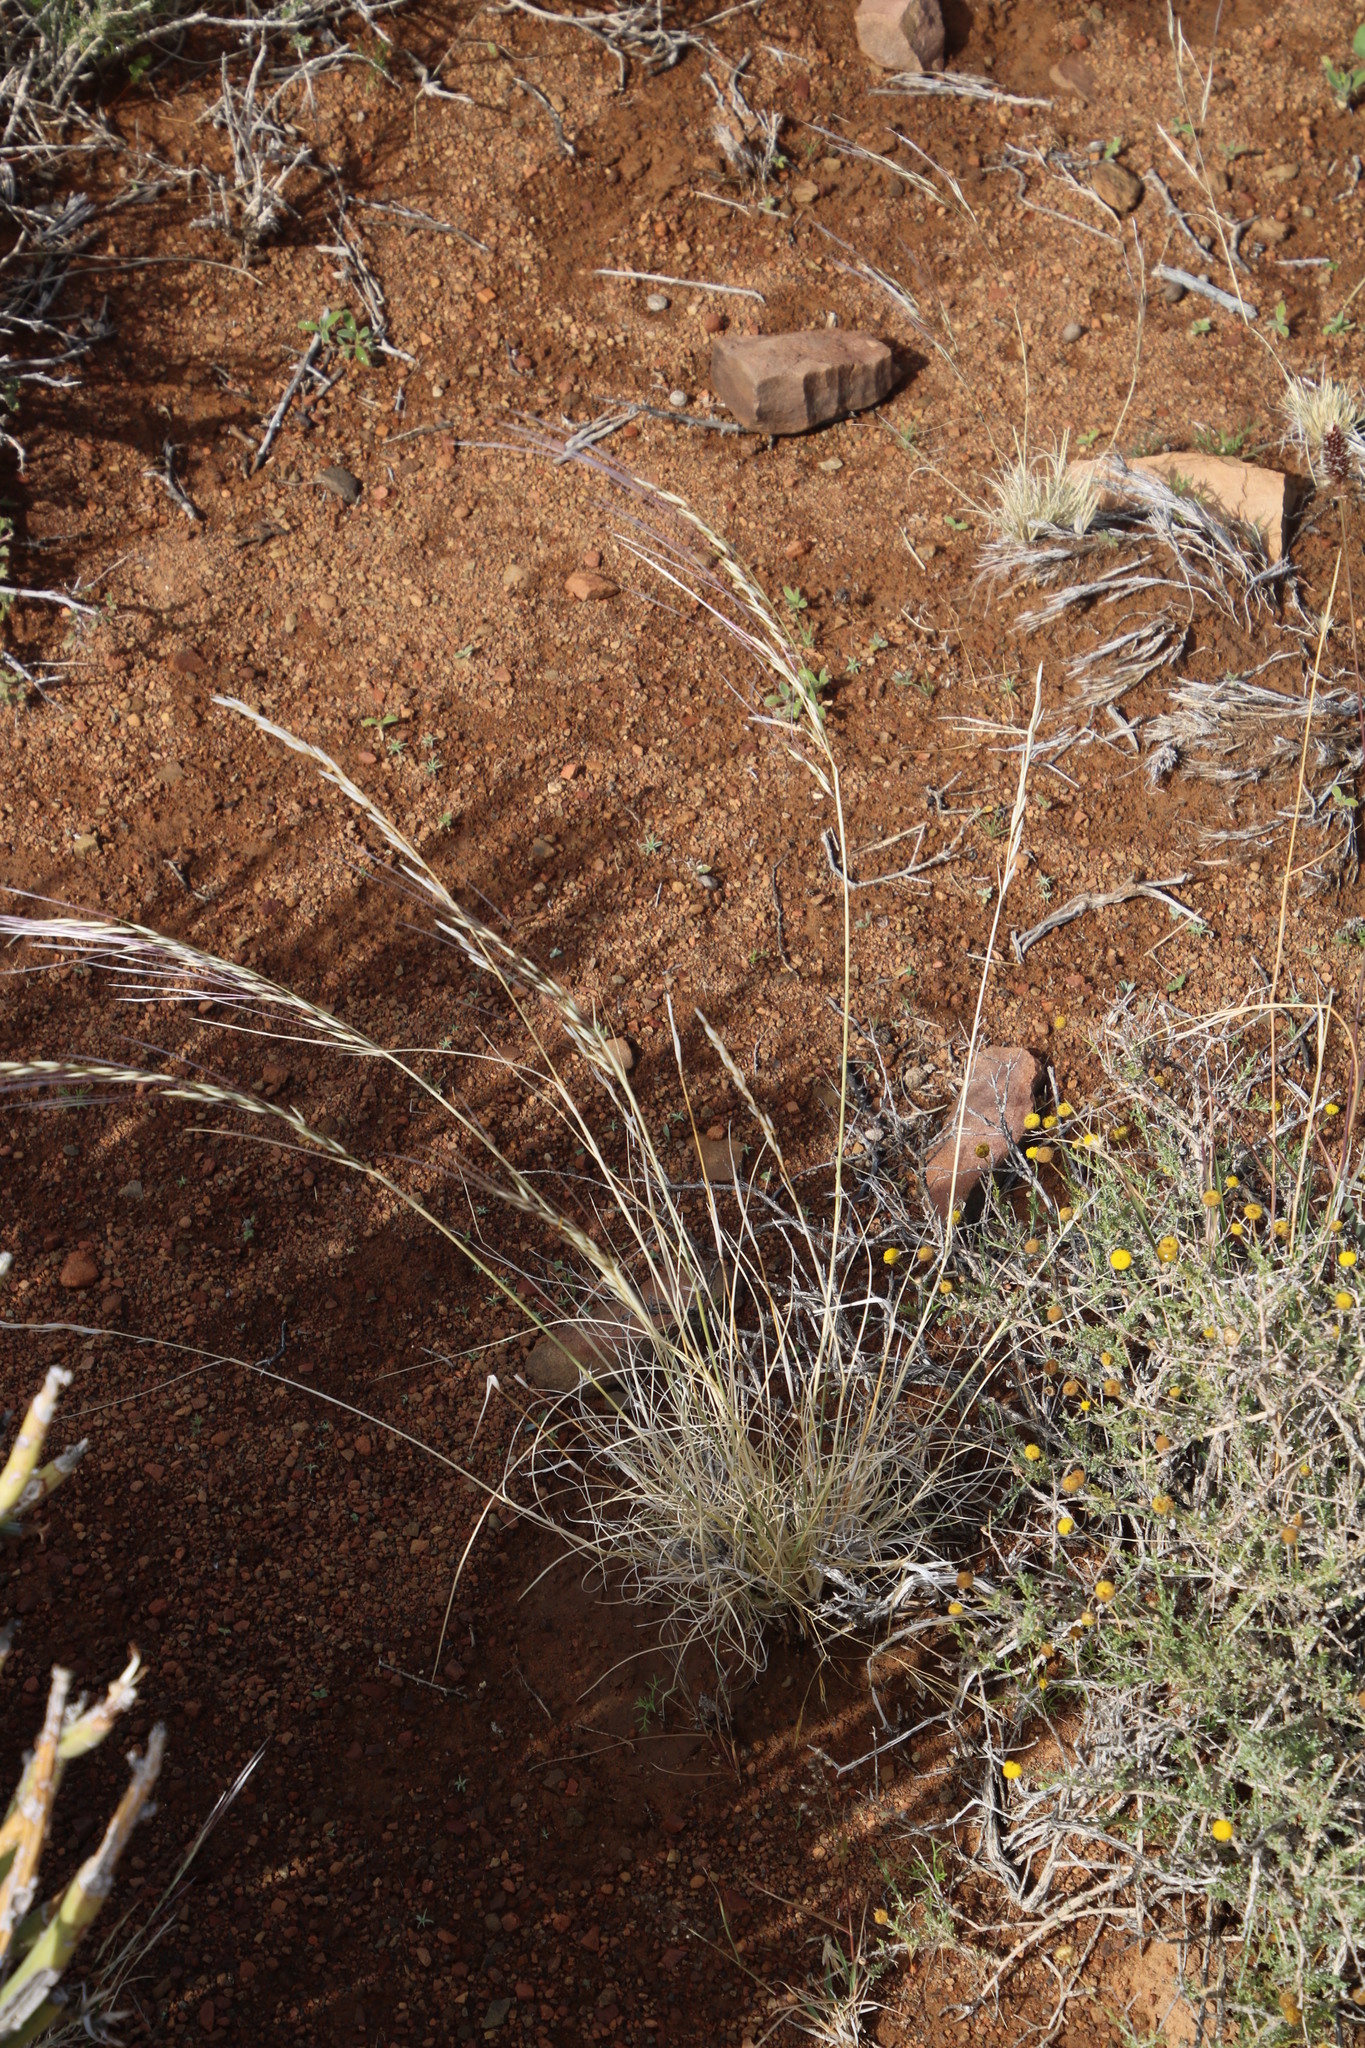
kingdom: Plantae
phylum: Tracheophyta
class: Liliopsida
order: Poales
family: Poaceae
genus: Stipagrostis
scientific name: Stipagrostis ciliata
